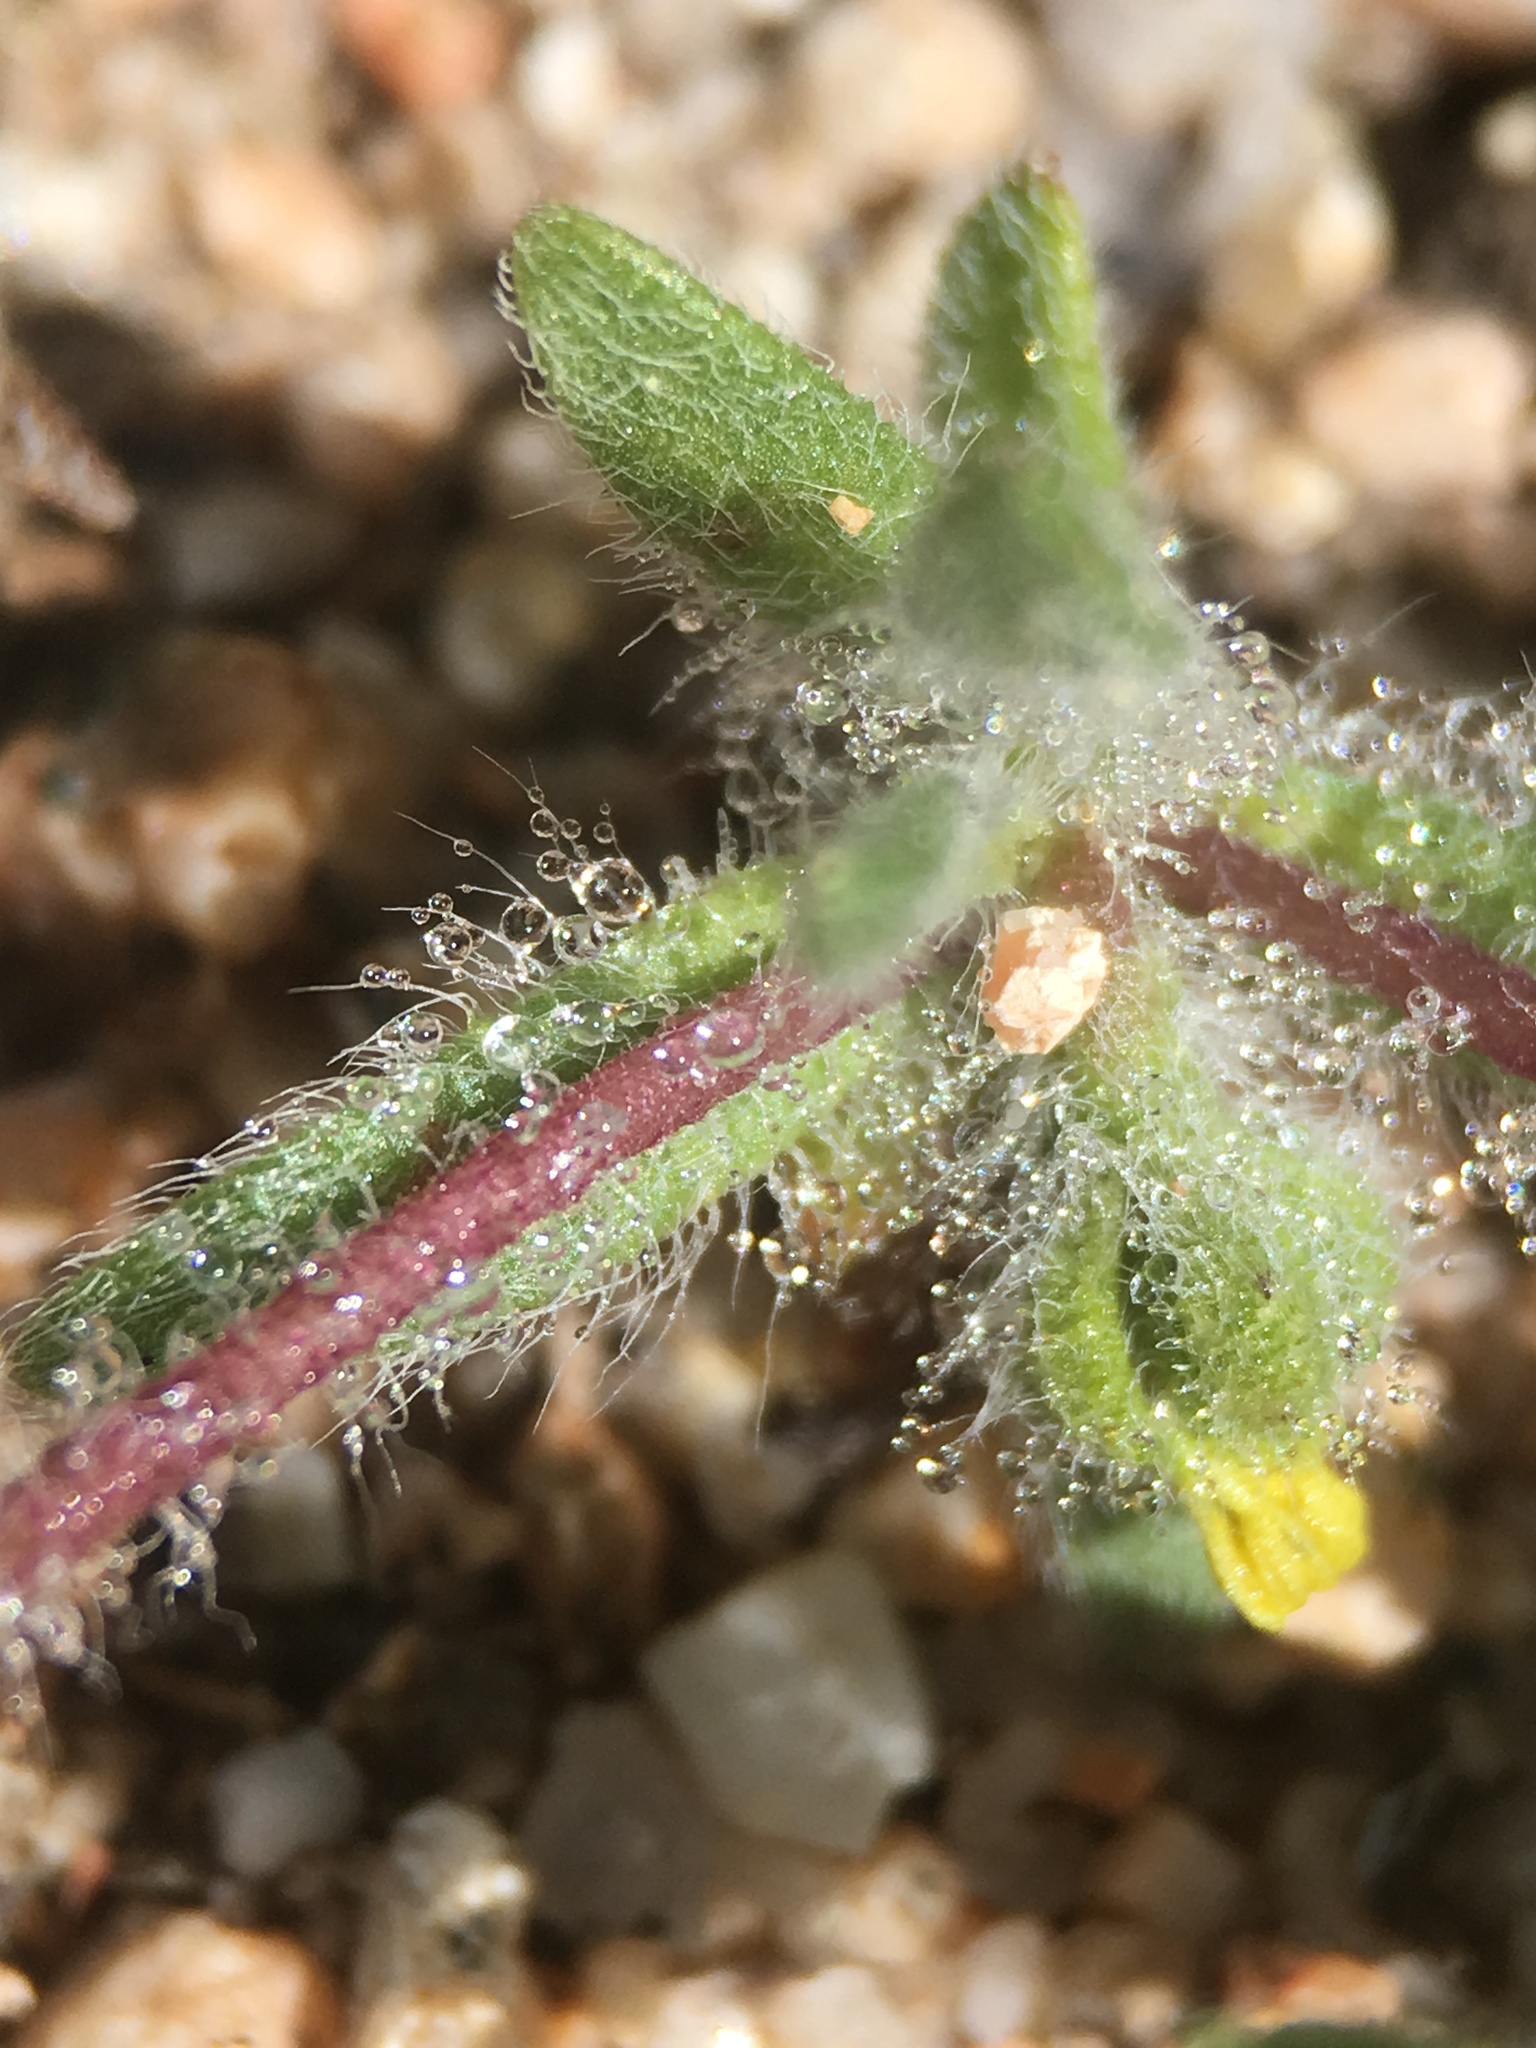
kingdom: Plantae
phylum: Tracheophyta
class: Magnoliopsida
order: Asterales
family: Asteraceae
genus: Hemizonella
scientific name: Hemizonella minima
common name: Opposite-leaved tarweed
